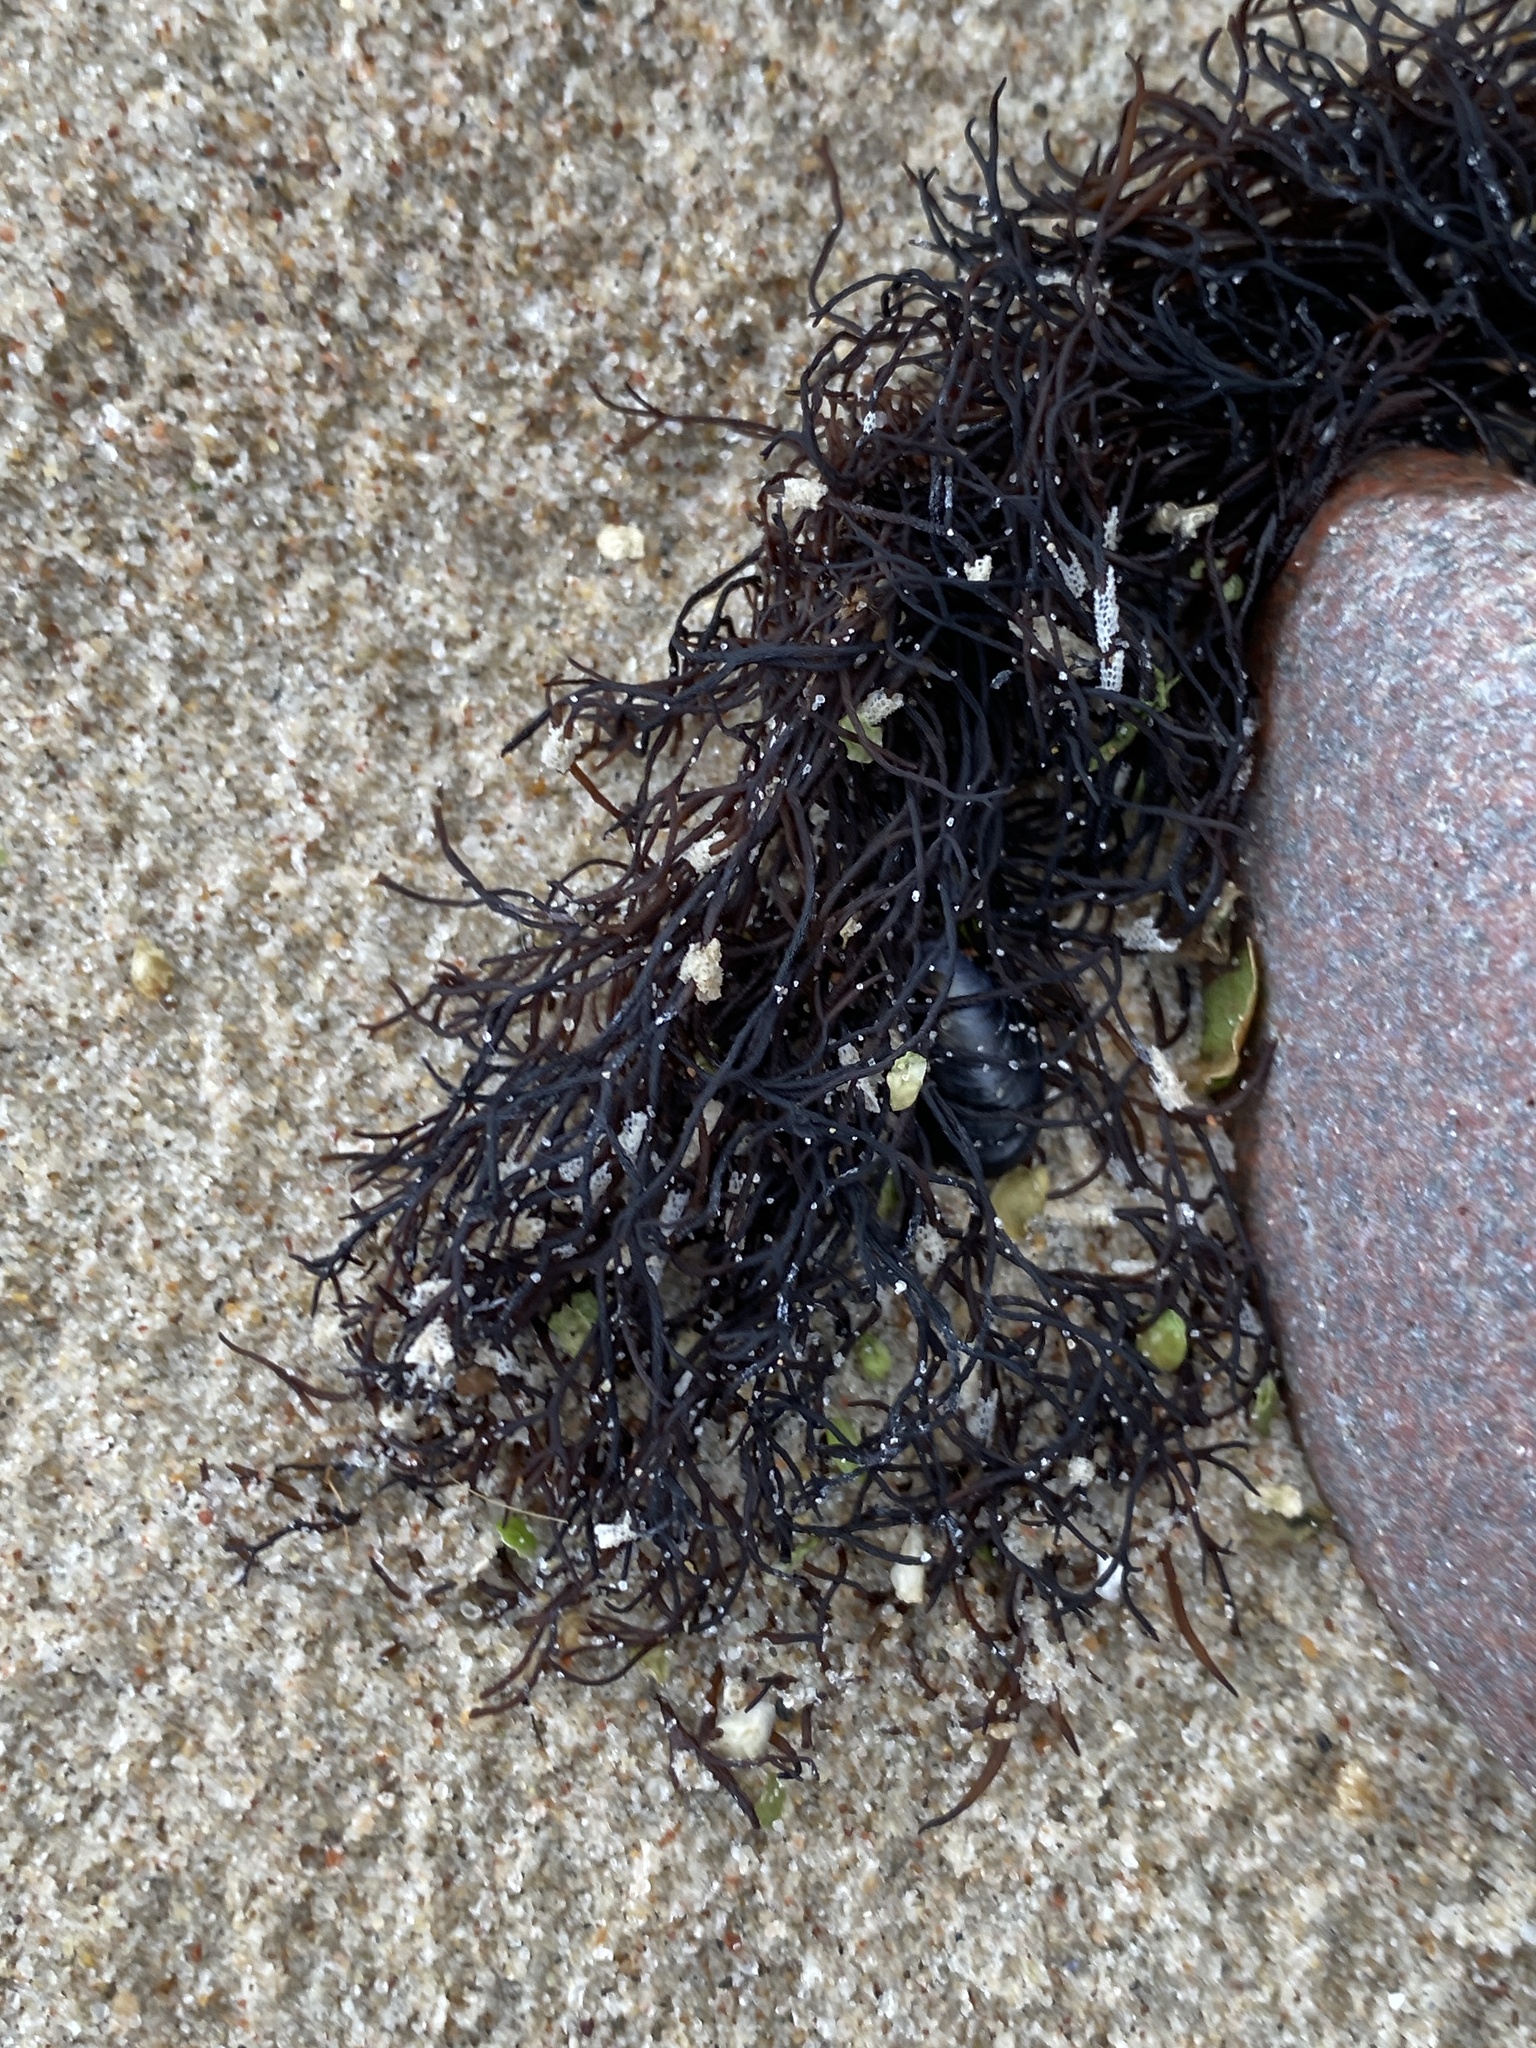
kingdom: Plantae
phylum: Rhodophyta
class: Florideophyceae
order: Gigartinales
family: Furcellariaceae
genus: Furcellaria
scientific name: Furcellaria lumbricalis
